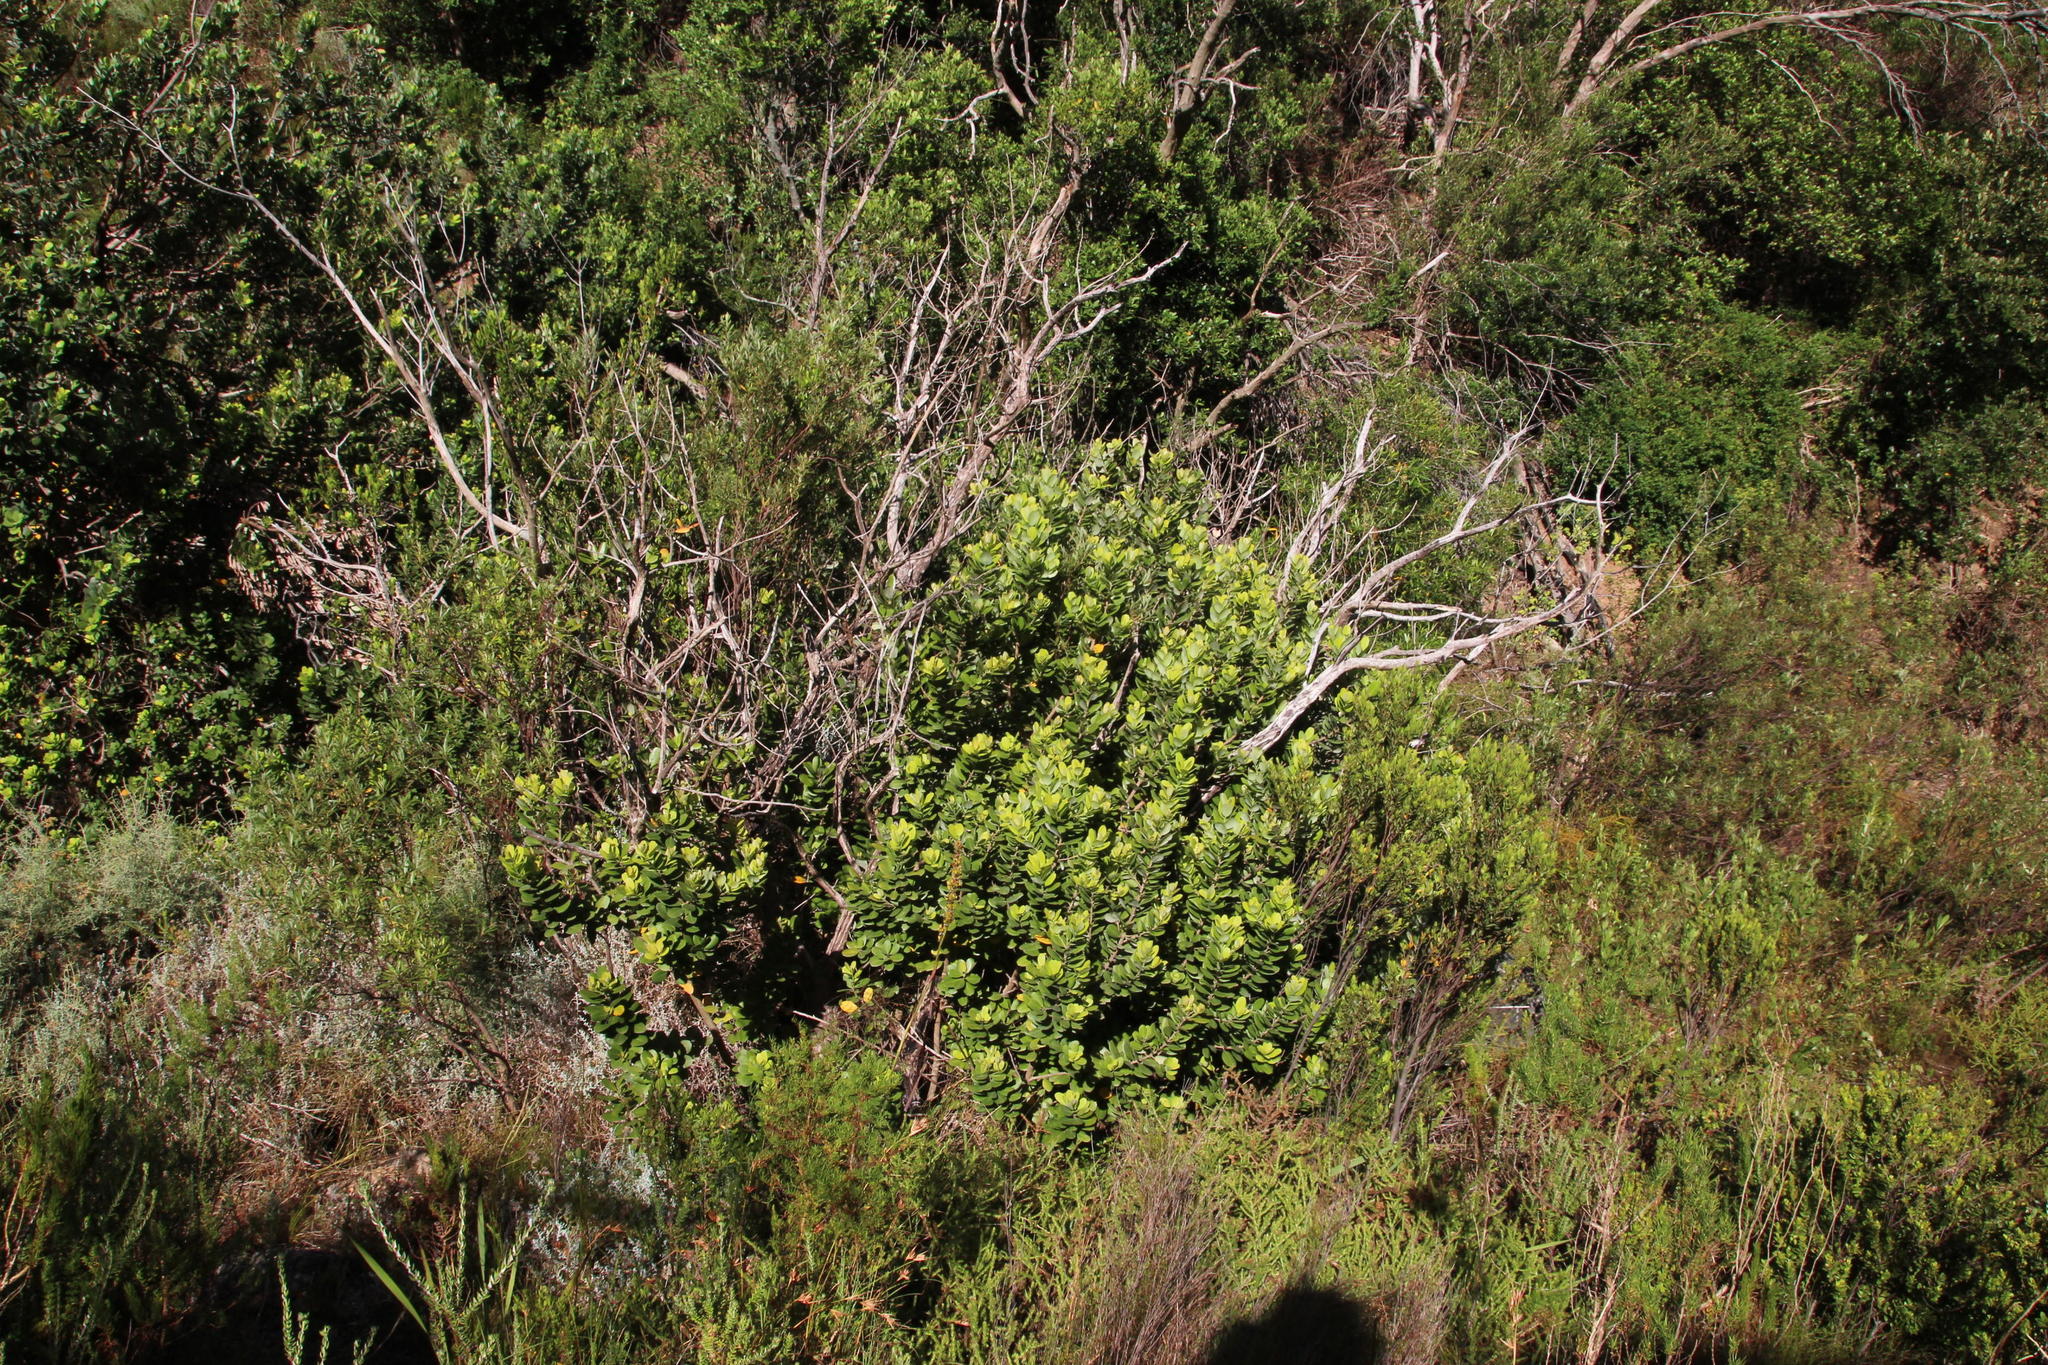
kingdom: Plantae
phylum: Tracheophyta
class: Magnoliopsida
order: Sapindales
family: Anacardiaceae
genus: Heeria
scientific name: Heeria argentea
